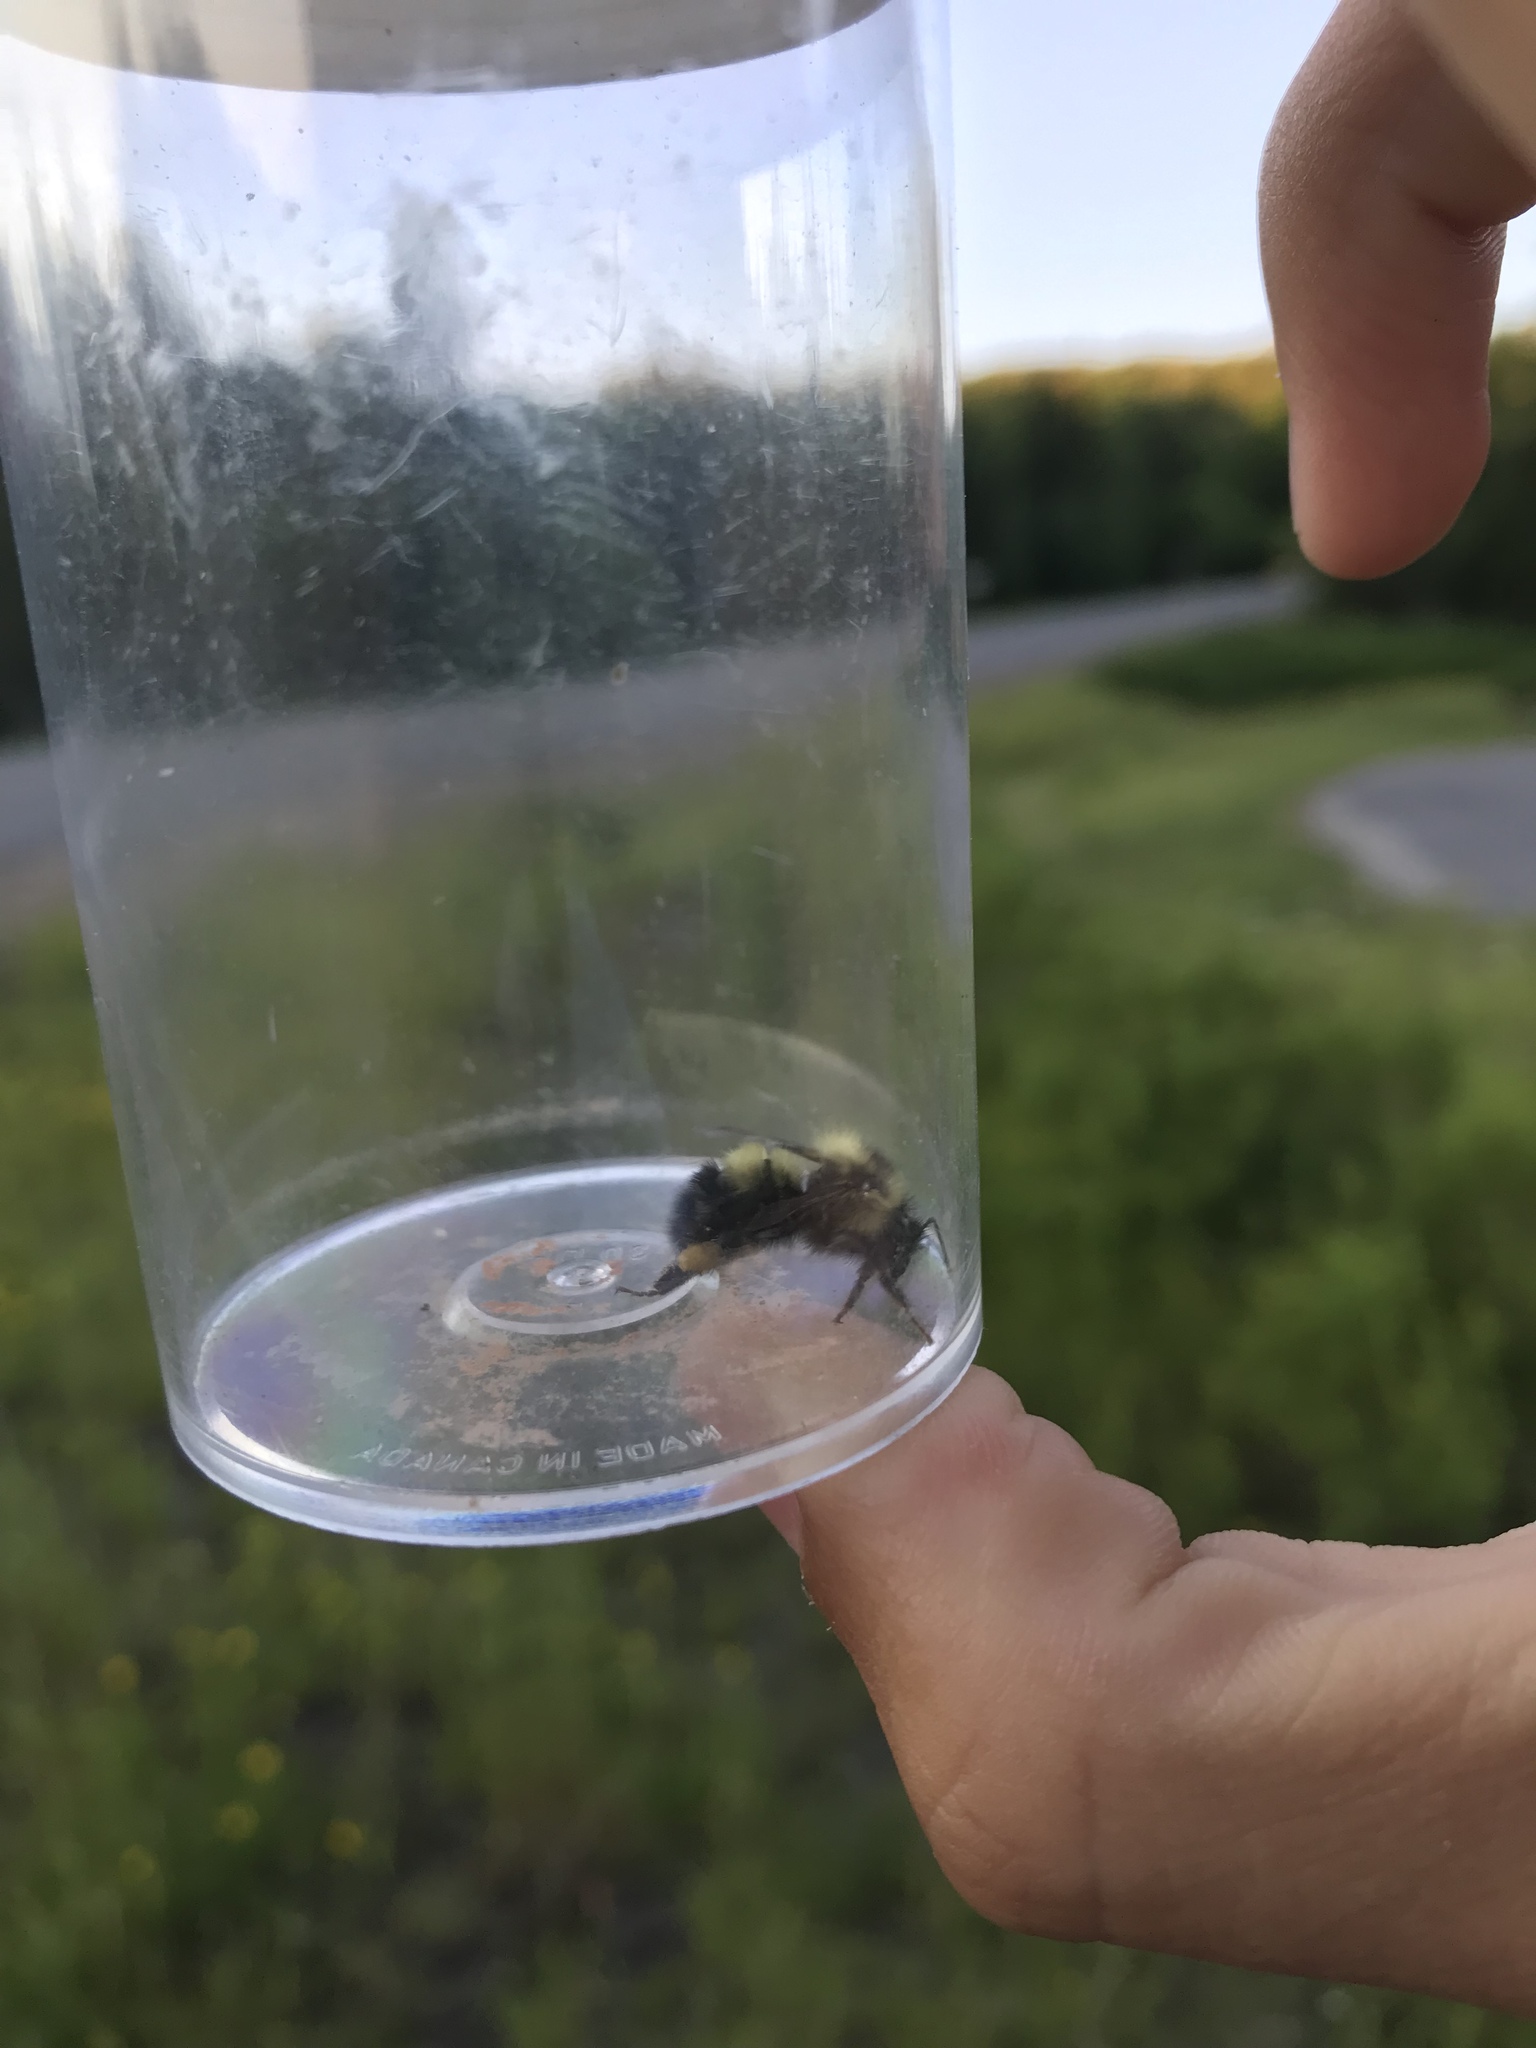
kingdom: Animalia
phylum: Arthropoda
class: Insecta
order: Hymenoptera
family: Apidae
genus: Bombus
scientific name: Bombus vagans
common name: Half-black bumble bee
